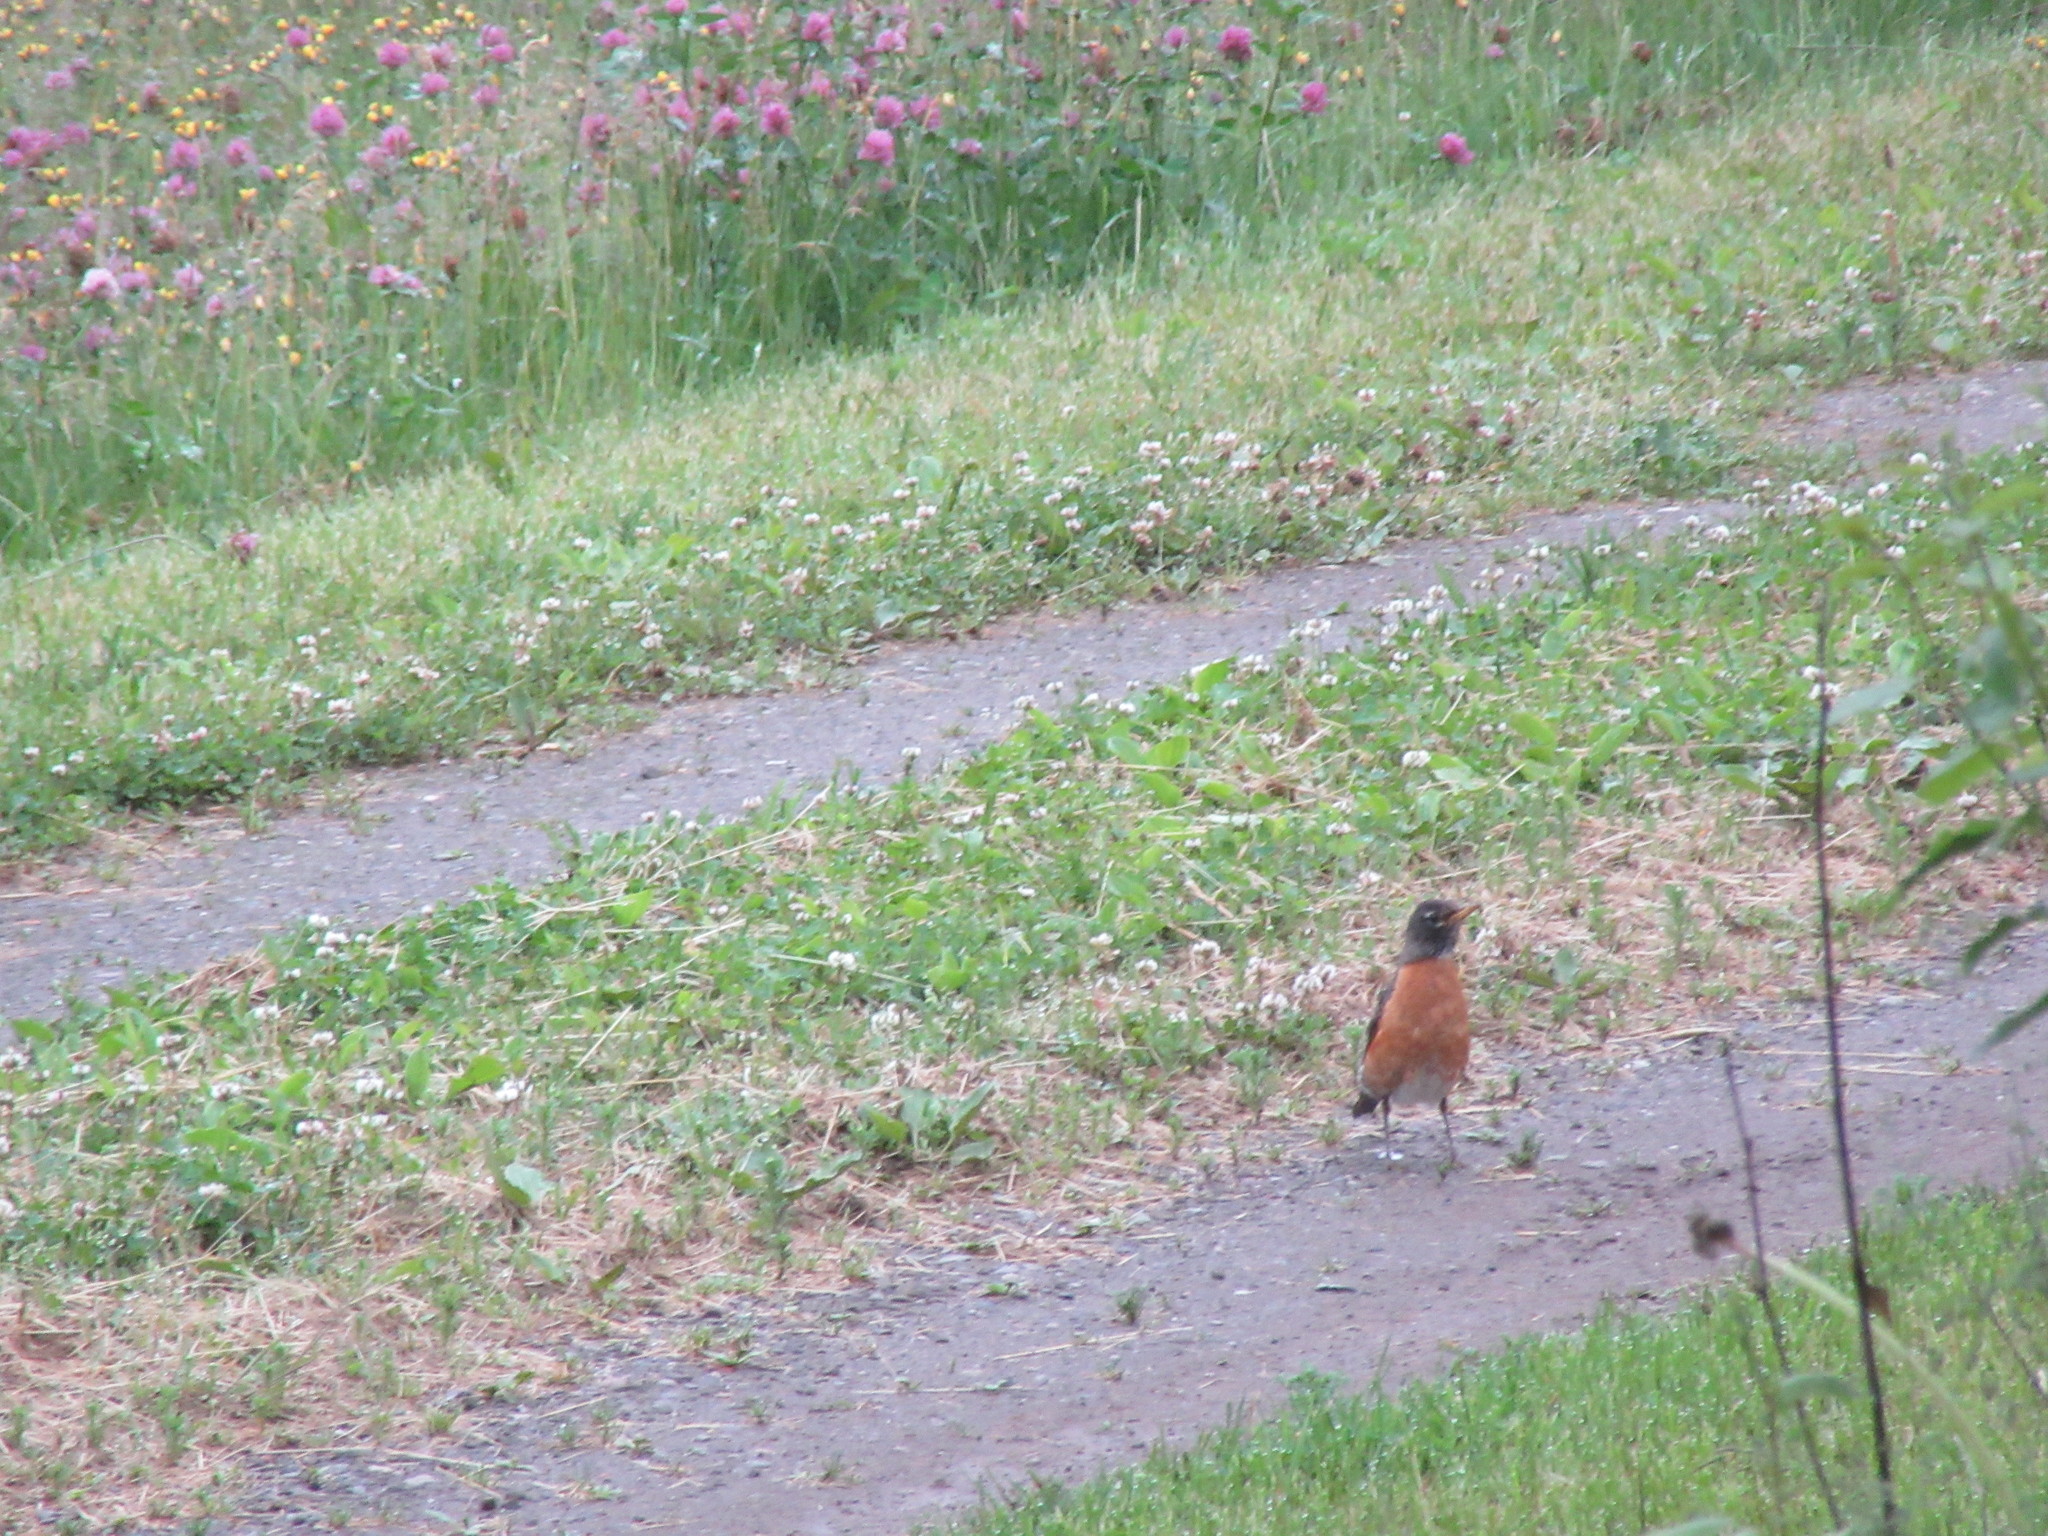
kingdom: Animalia
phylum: Chordata
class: Aves
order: Passeriformes
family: Turdidae
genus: Turdus
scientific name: Turdus migratorius
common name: American robin
